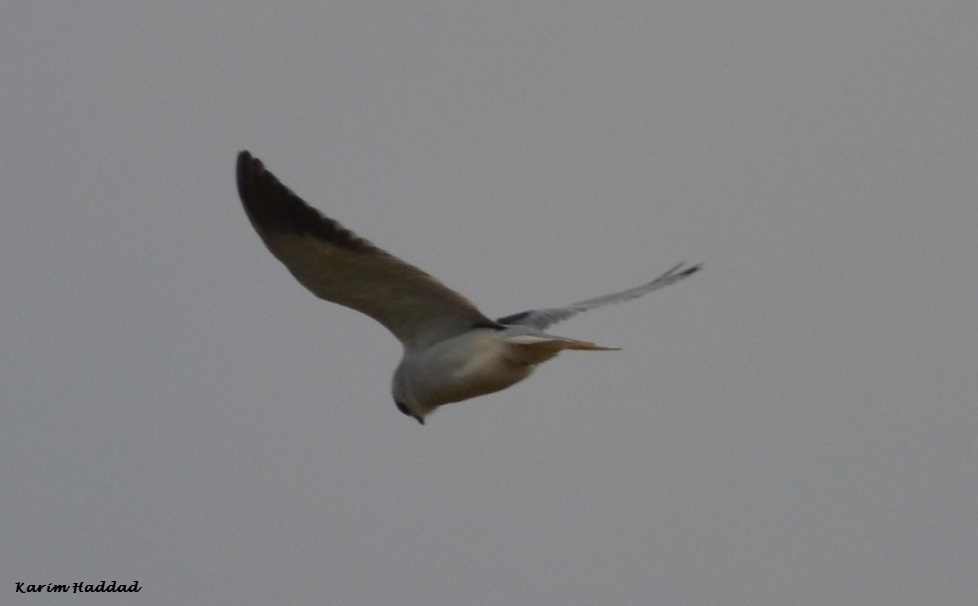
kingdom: Animalia
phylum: Chordata
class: Aves
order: Accipitriformes
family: Accipitridae
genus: Elanus
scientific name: Elanus caeruleus
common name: Black-winged kite
